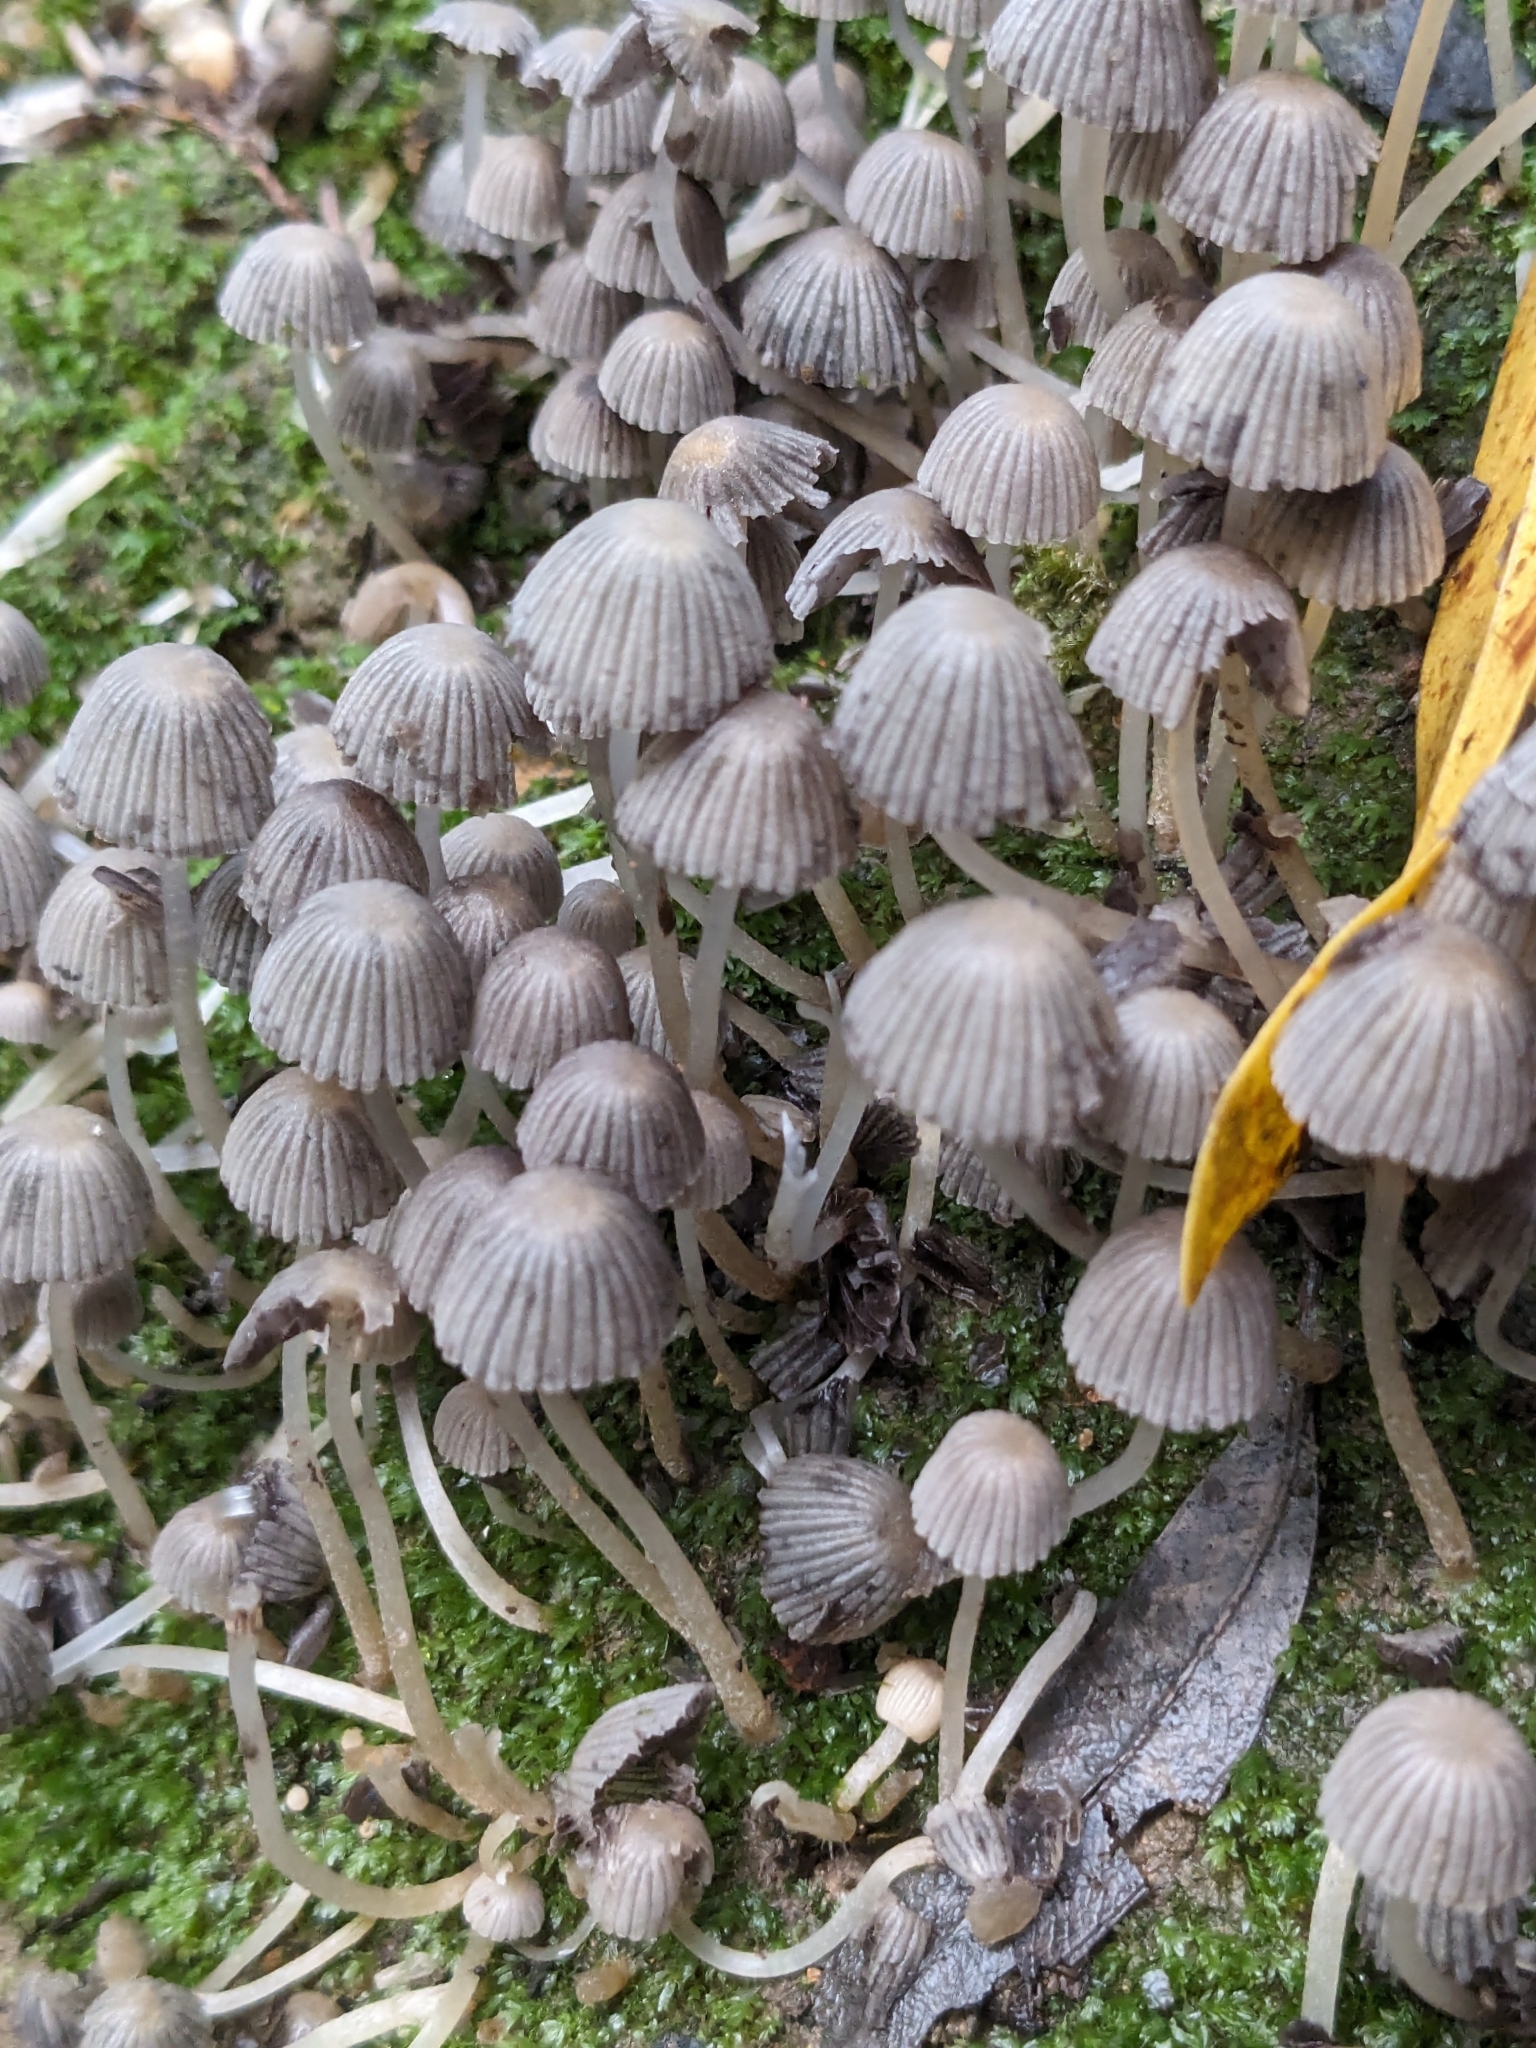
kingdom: Fungi
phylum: Basidiomycota
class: Agaricomycetes
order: Agaricales
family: Psathyrellaceae
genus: Coprinellus
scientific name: Coprinellus disseminatus
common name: Fairies' bonnets
